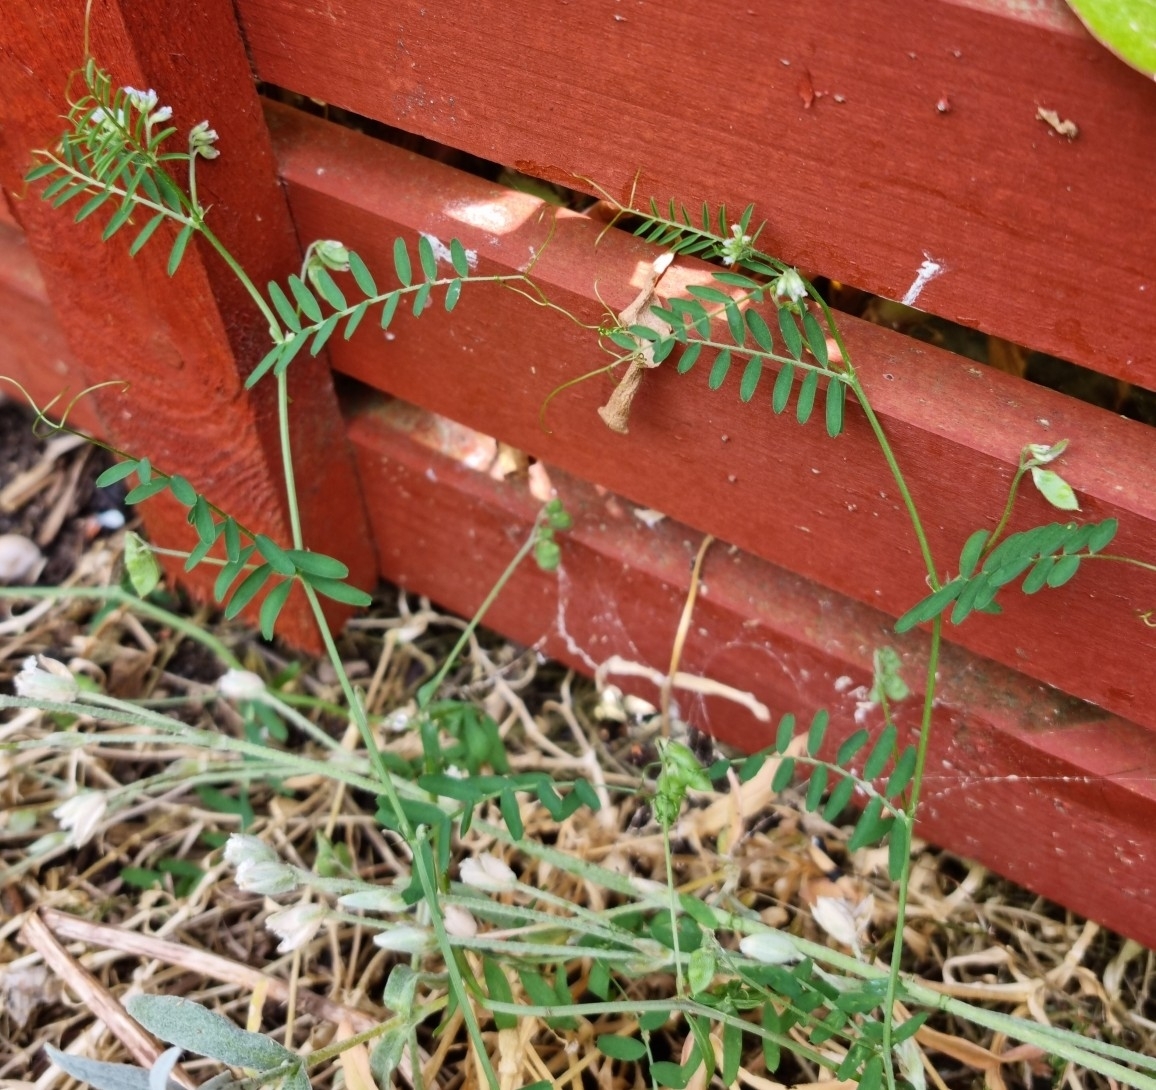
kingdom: Plantae
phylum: Tracheophyta
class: Magnoliopsida
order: Fabales
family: Fabaceae
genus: Vicia
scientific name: Vicia hirsuta
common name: Tiny vetch
